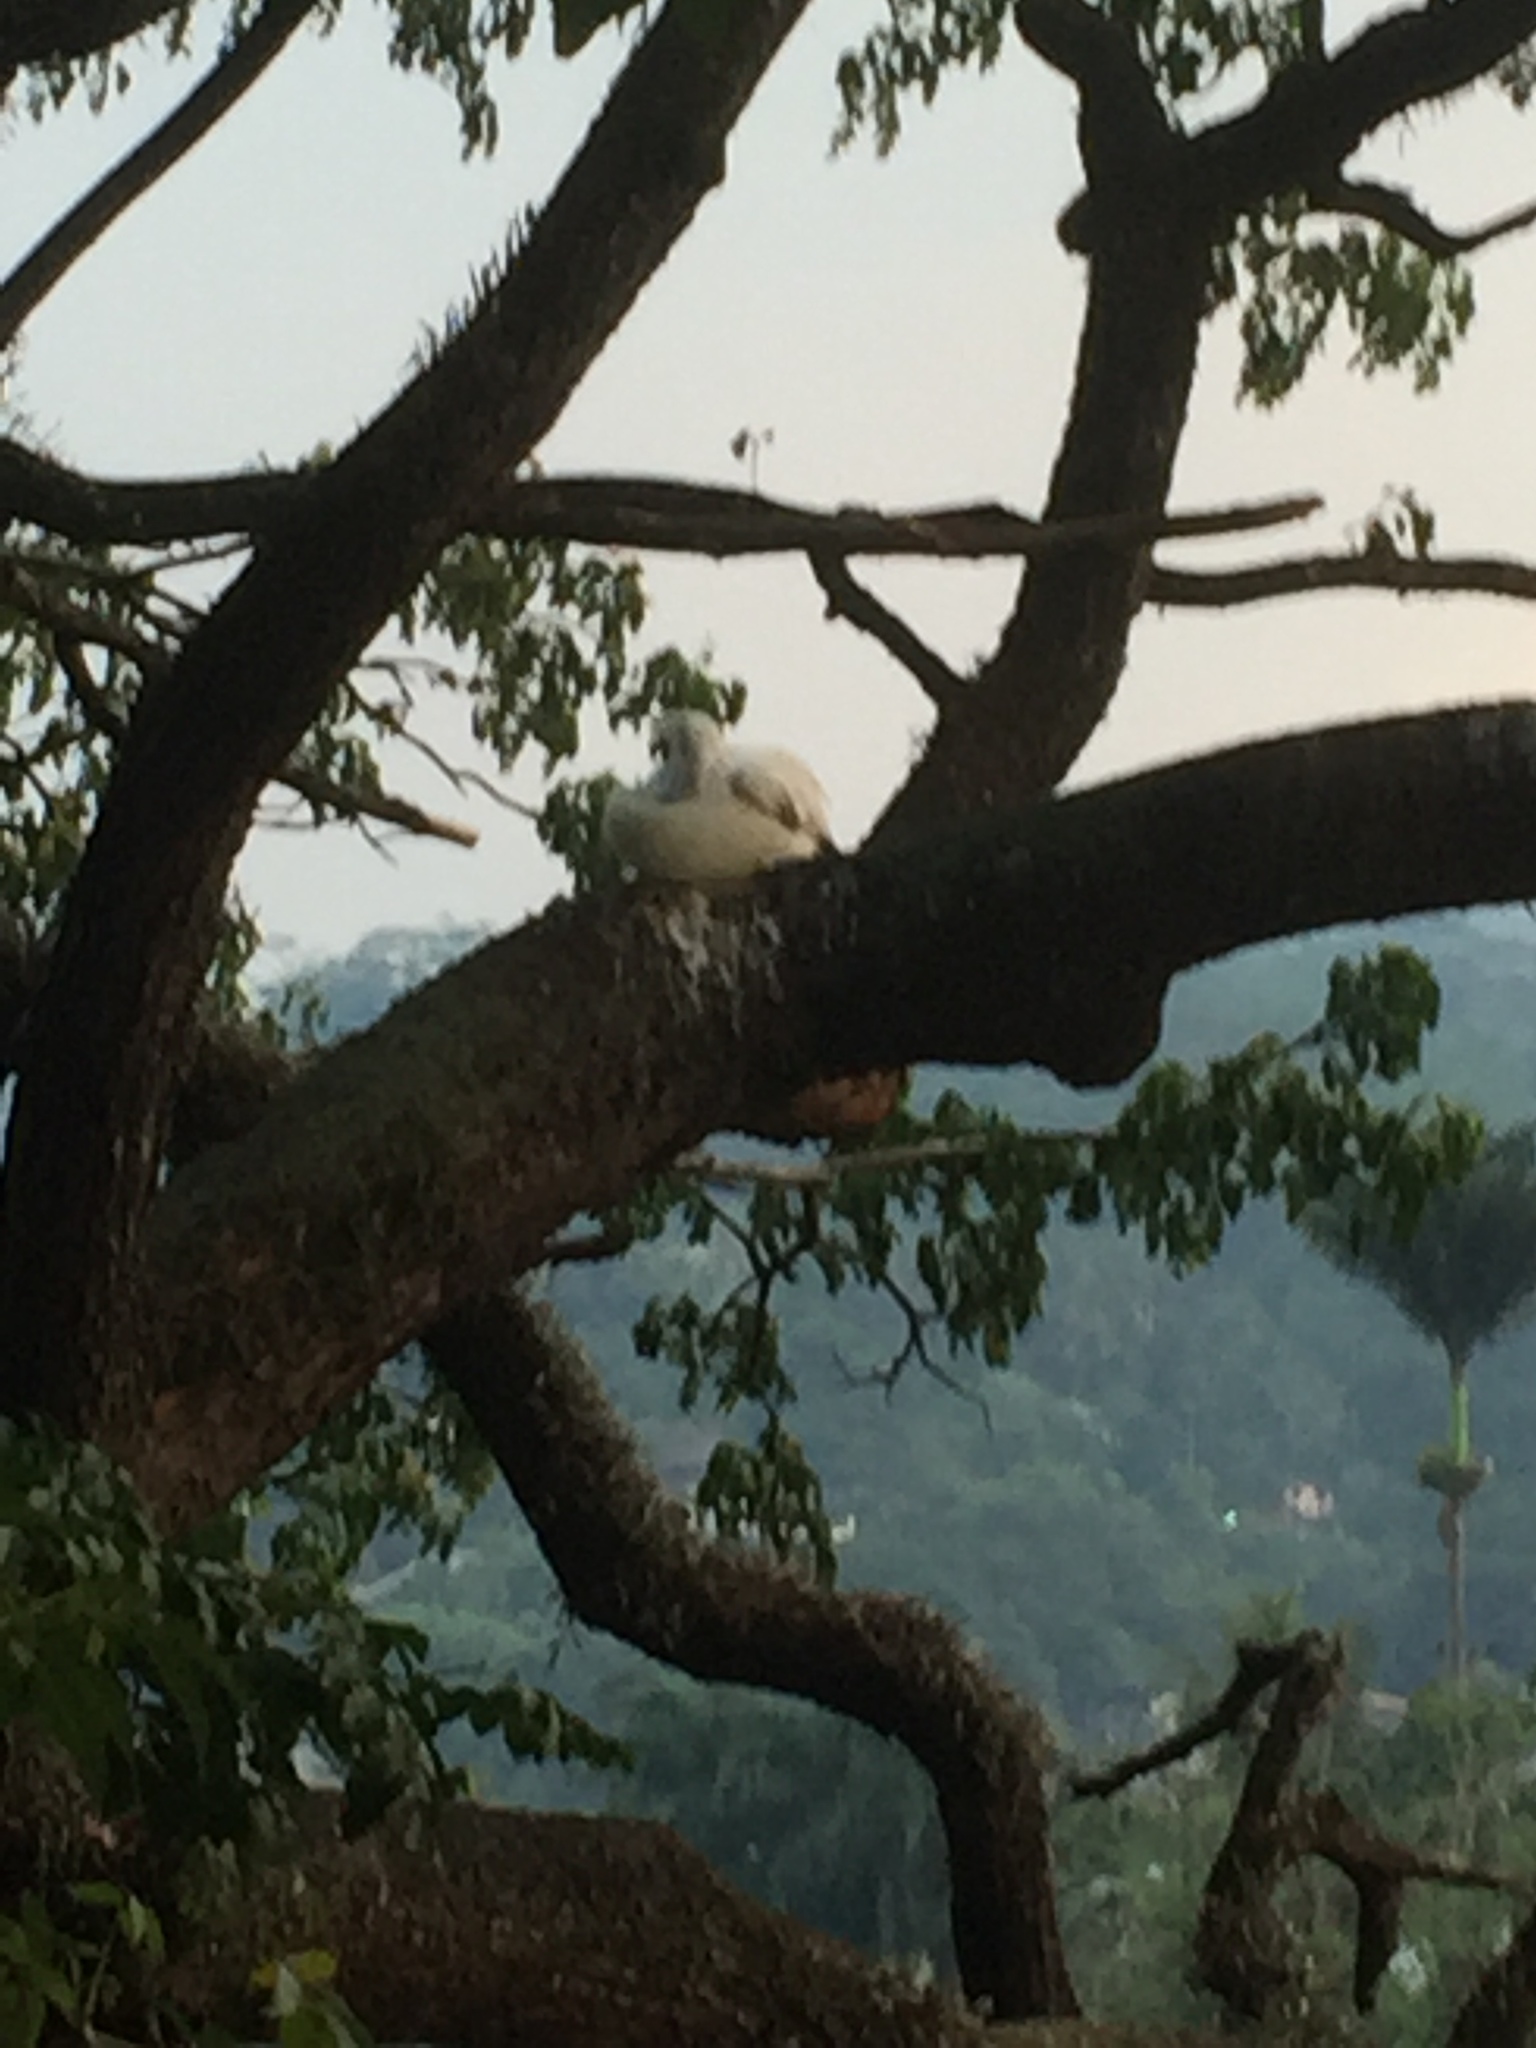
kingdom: Animalia
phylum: Chordata
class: Aves
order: Pelecaniformes
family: Pelecanidae
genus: Pelecanus
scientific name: Pelecanus philippensis
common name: Spot-billed pelican
